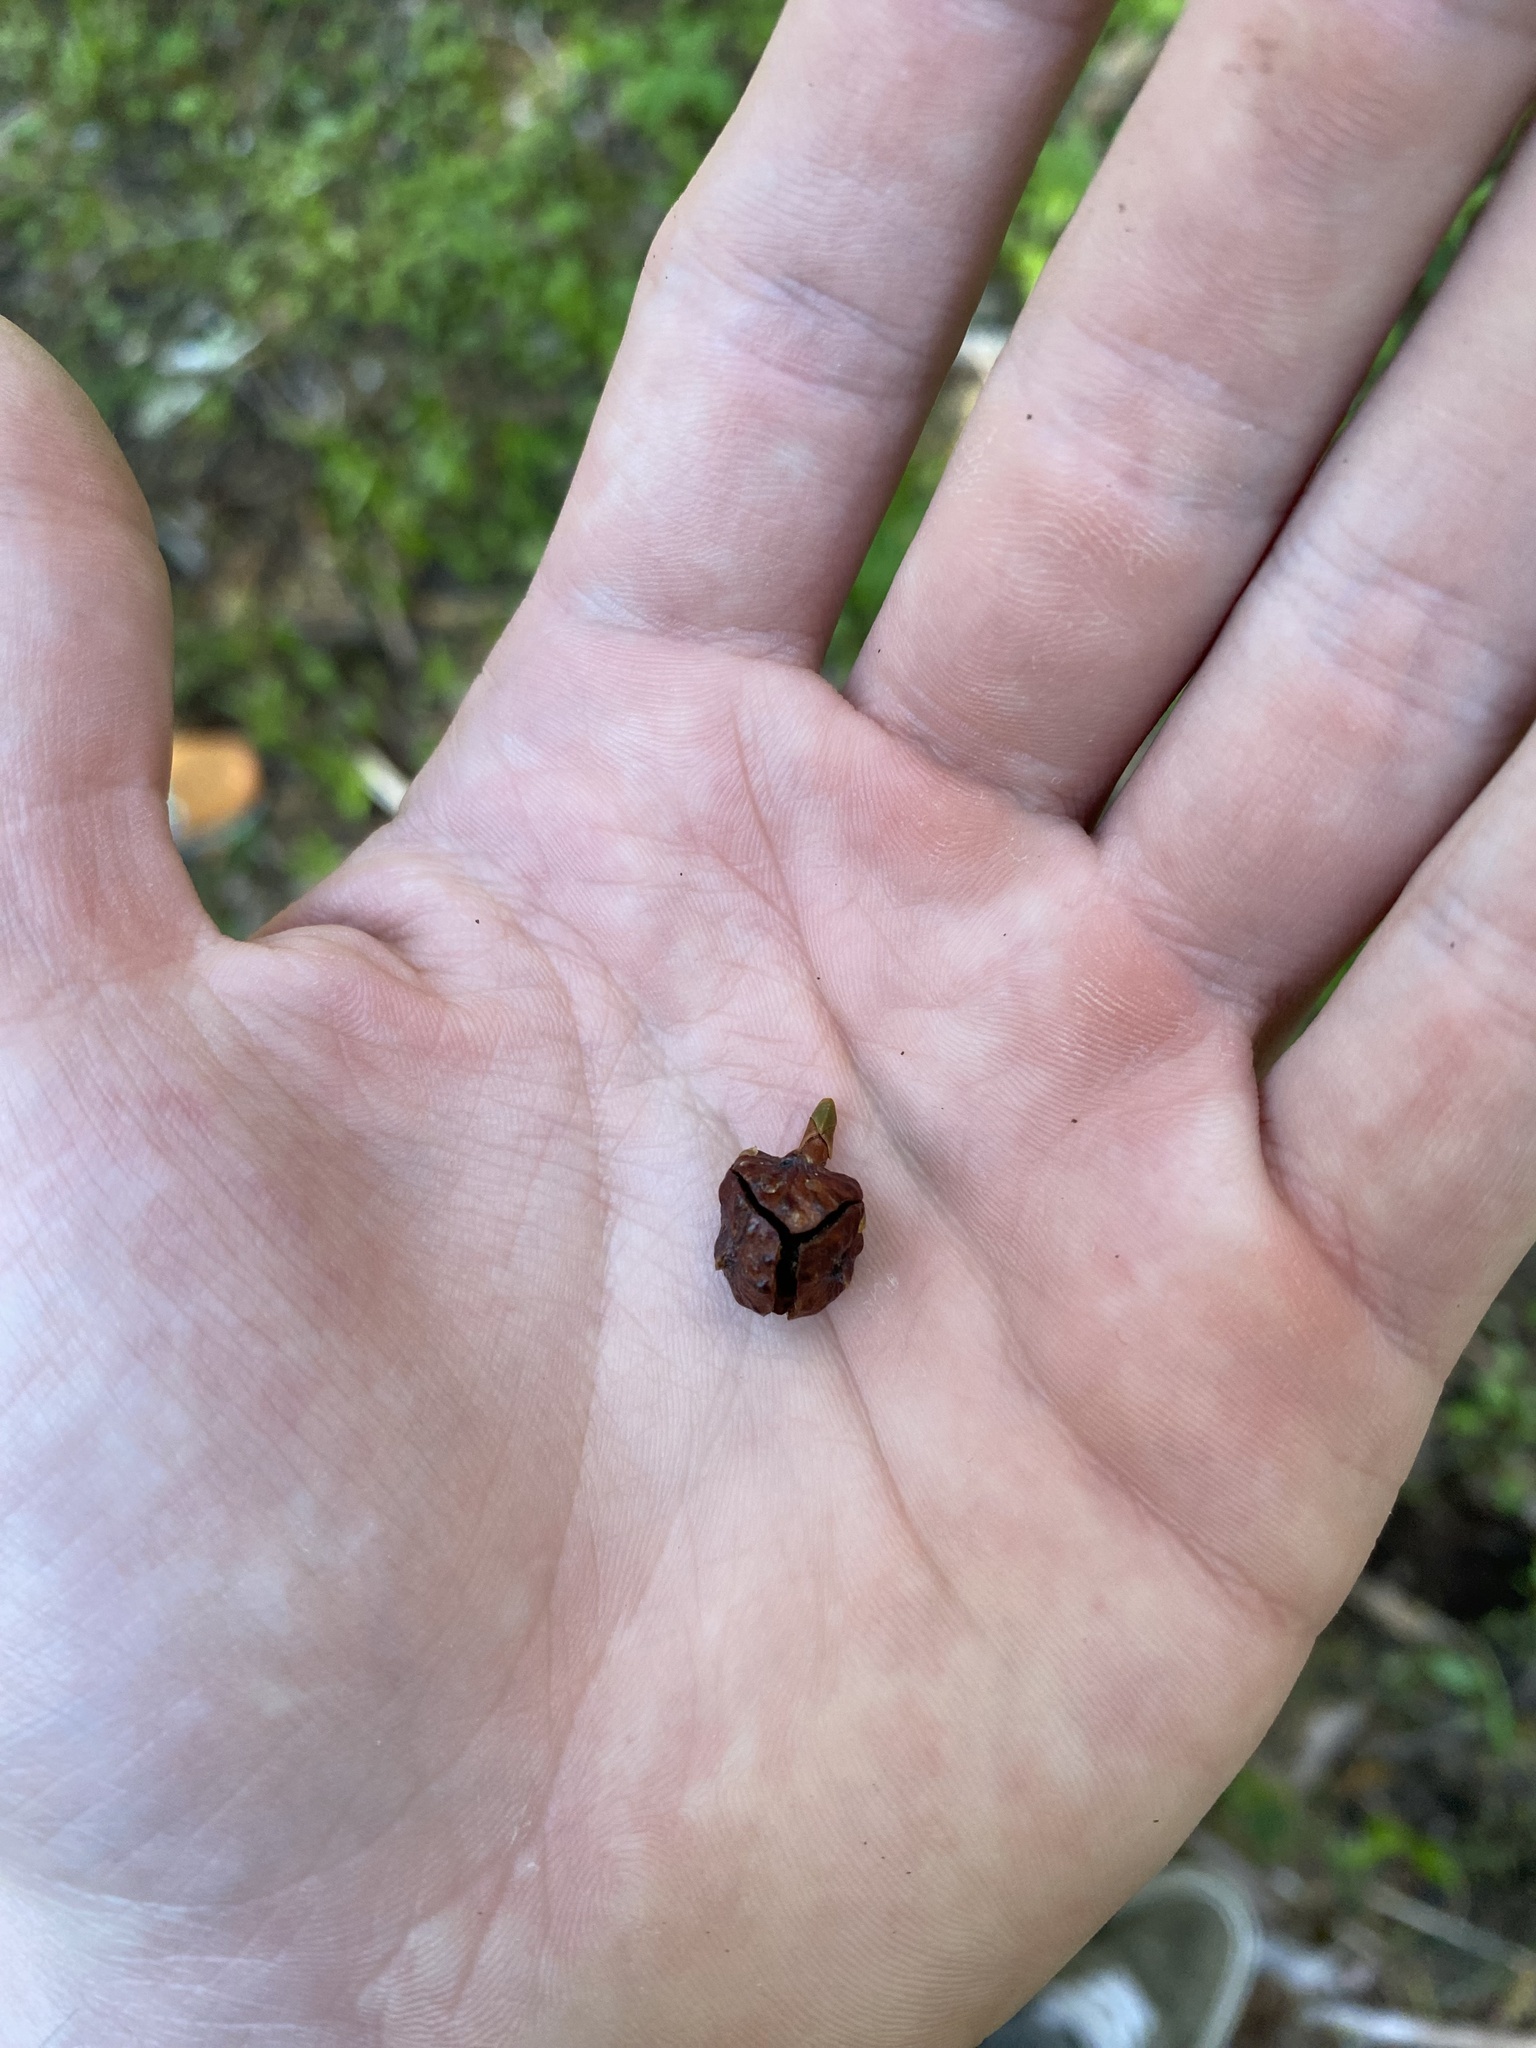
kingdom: Plantae
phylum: Tracheophyta
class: Pinopsida
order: Pinales
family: Cupressaceae
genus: Xanthocyparis
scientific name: Xanthocyparis nootkatensis
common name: Nootka cypress
